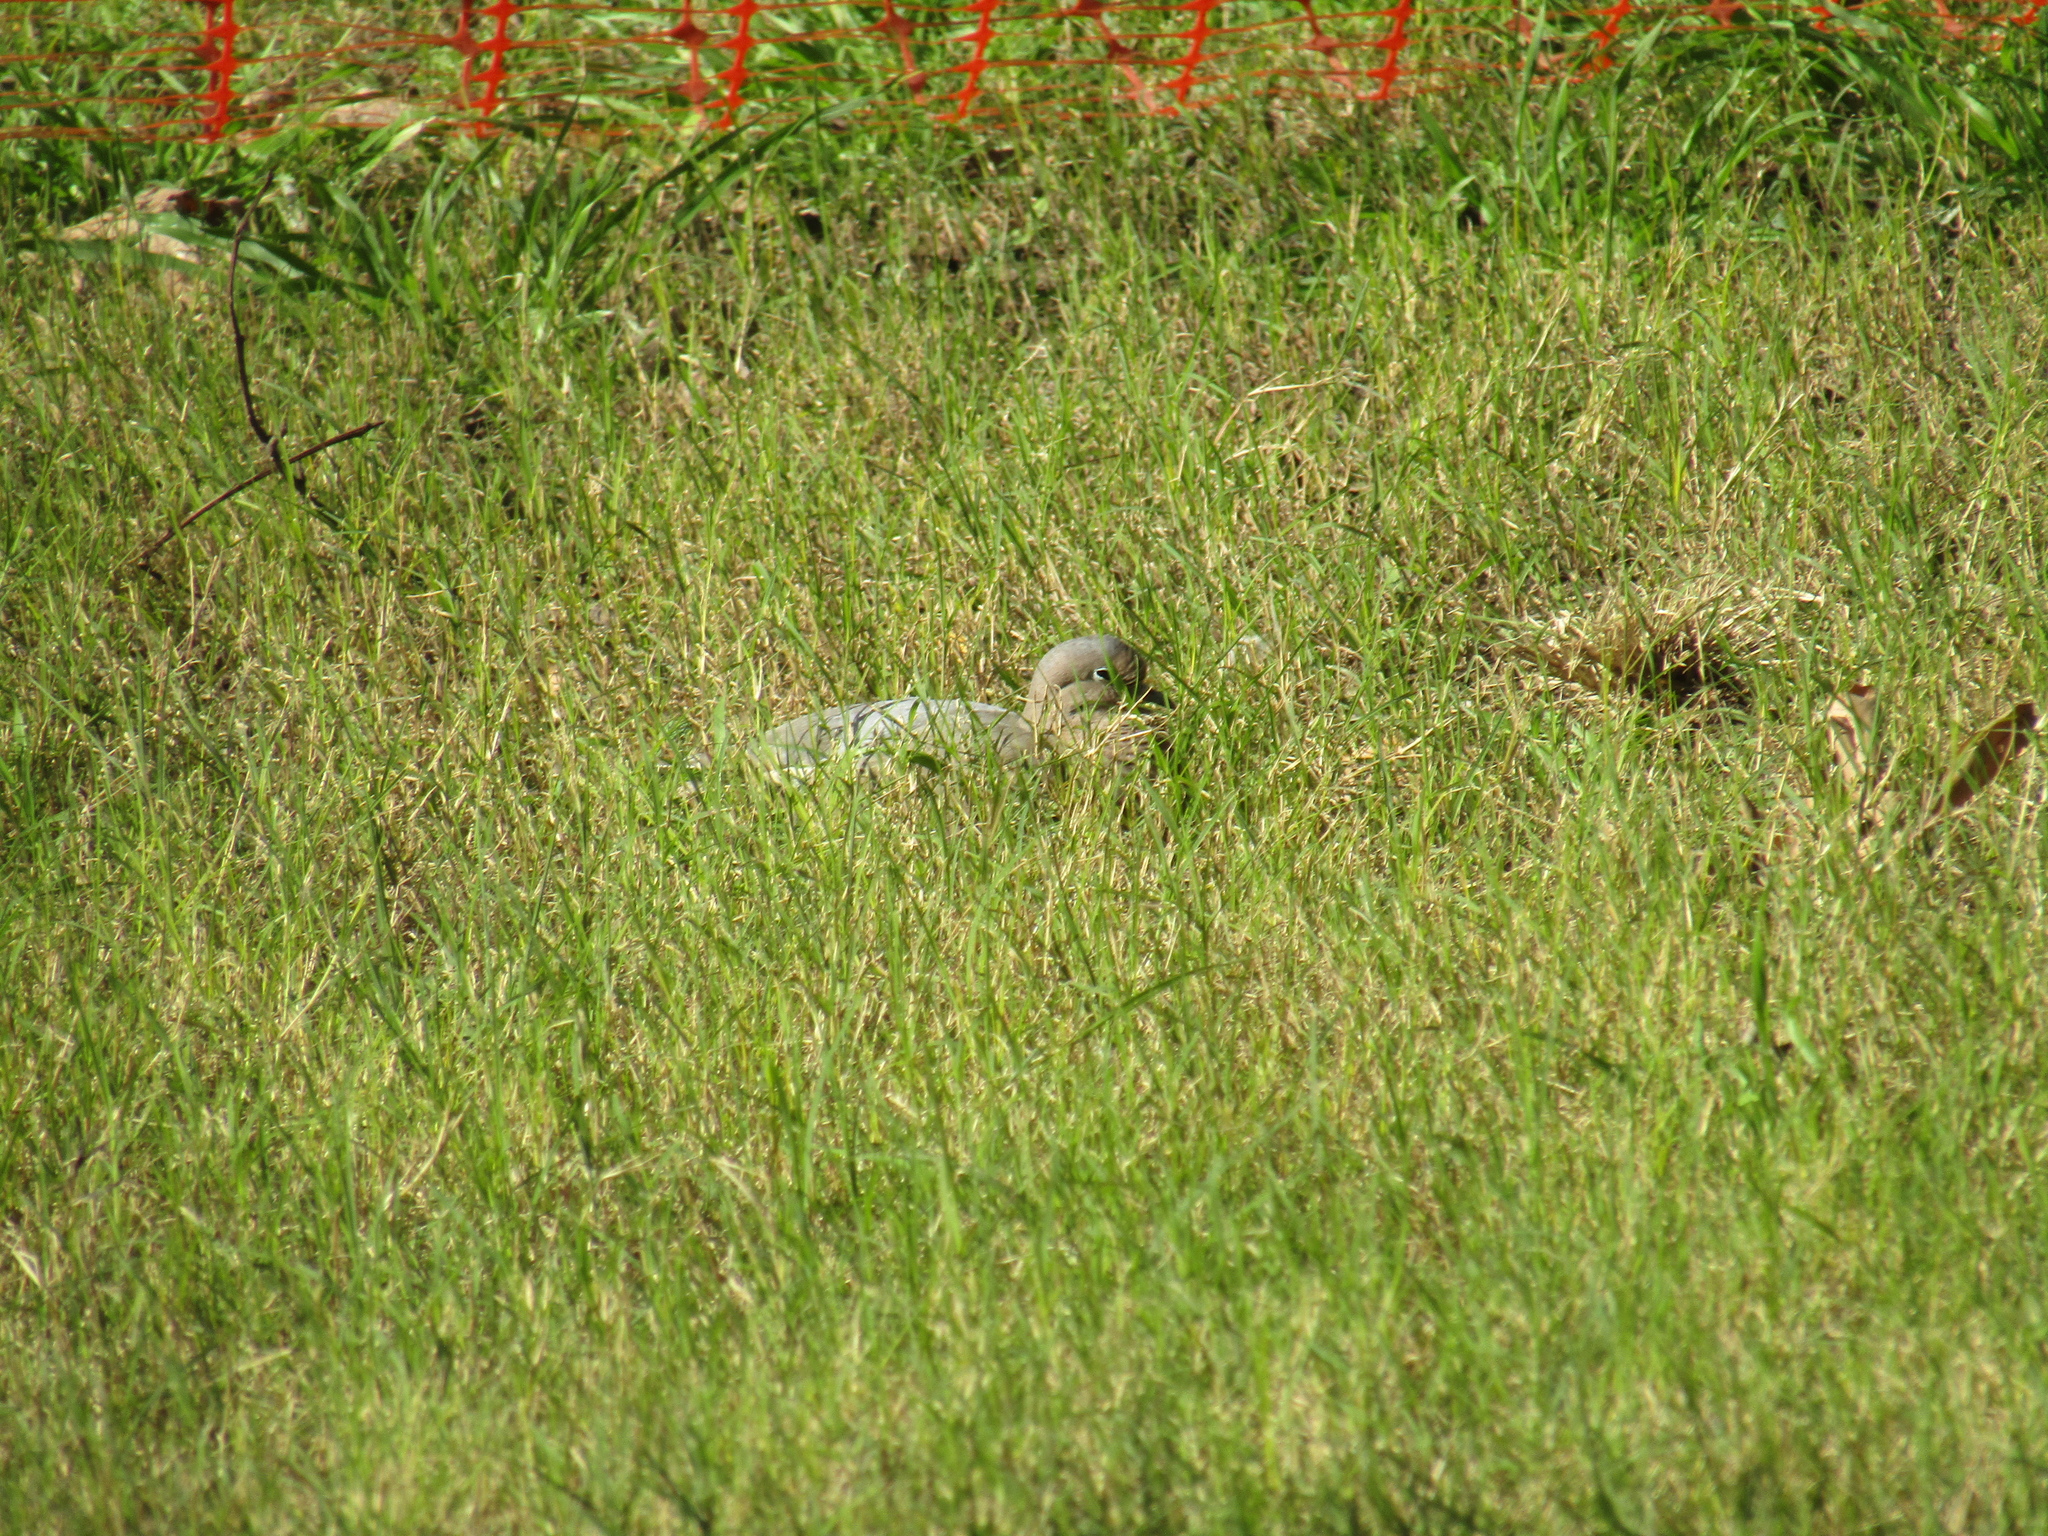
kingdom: Animalia
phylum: Chordata
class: Aves
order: Columbiformes
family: Columbidae
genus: Zenaida
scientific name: Zenaida auriculata
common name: Eared dove
